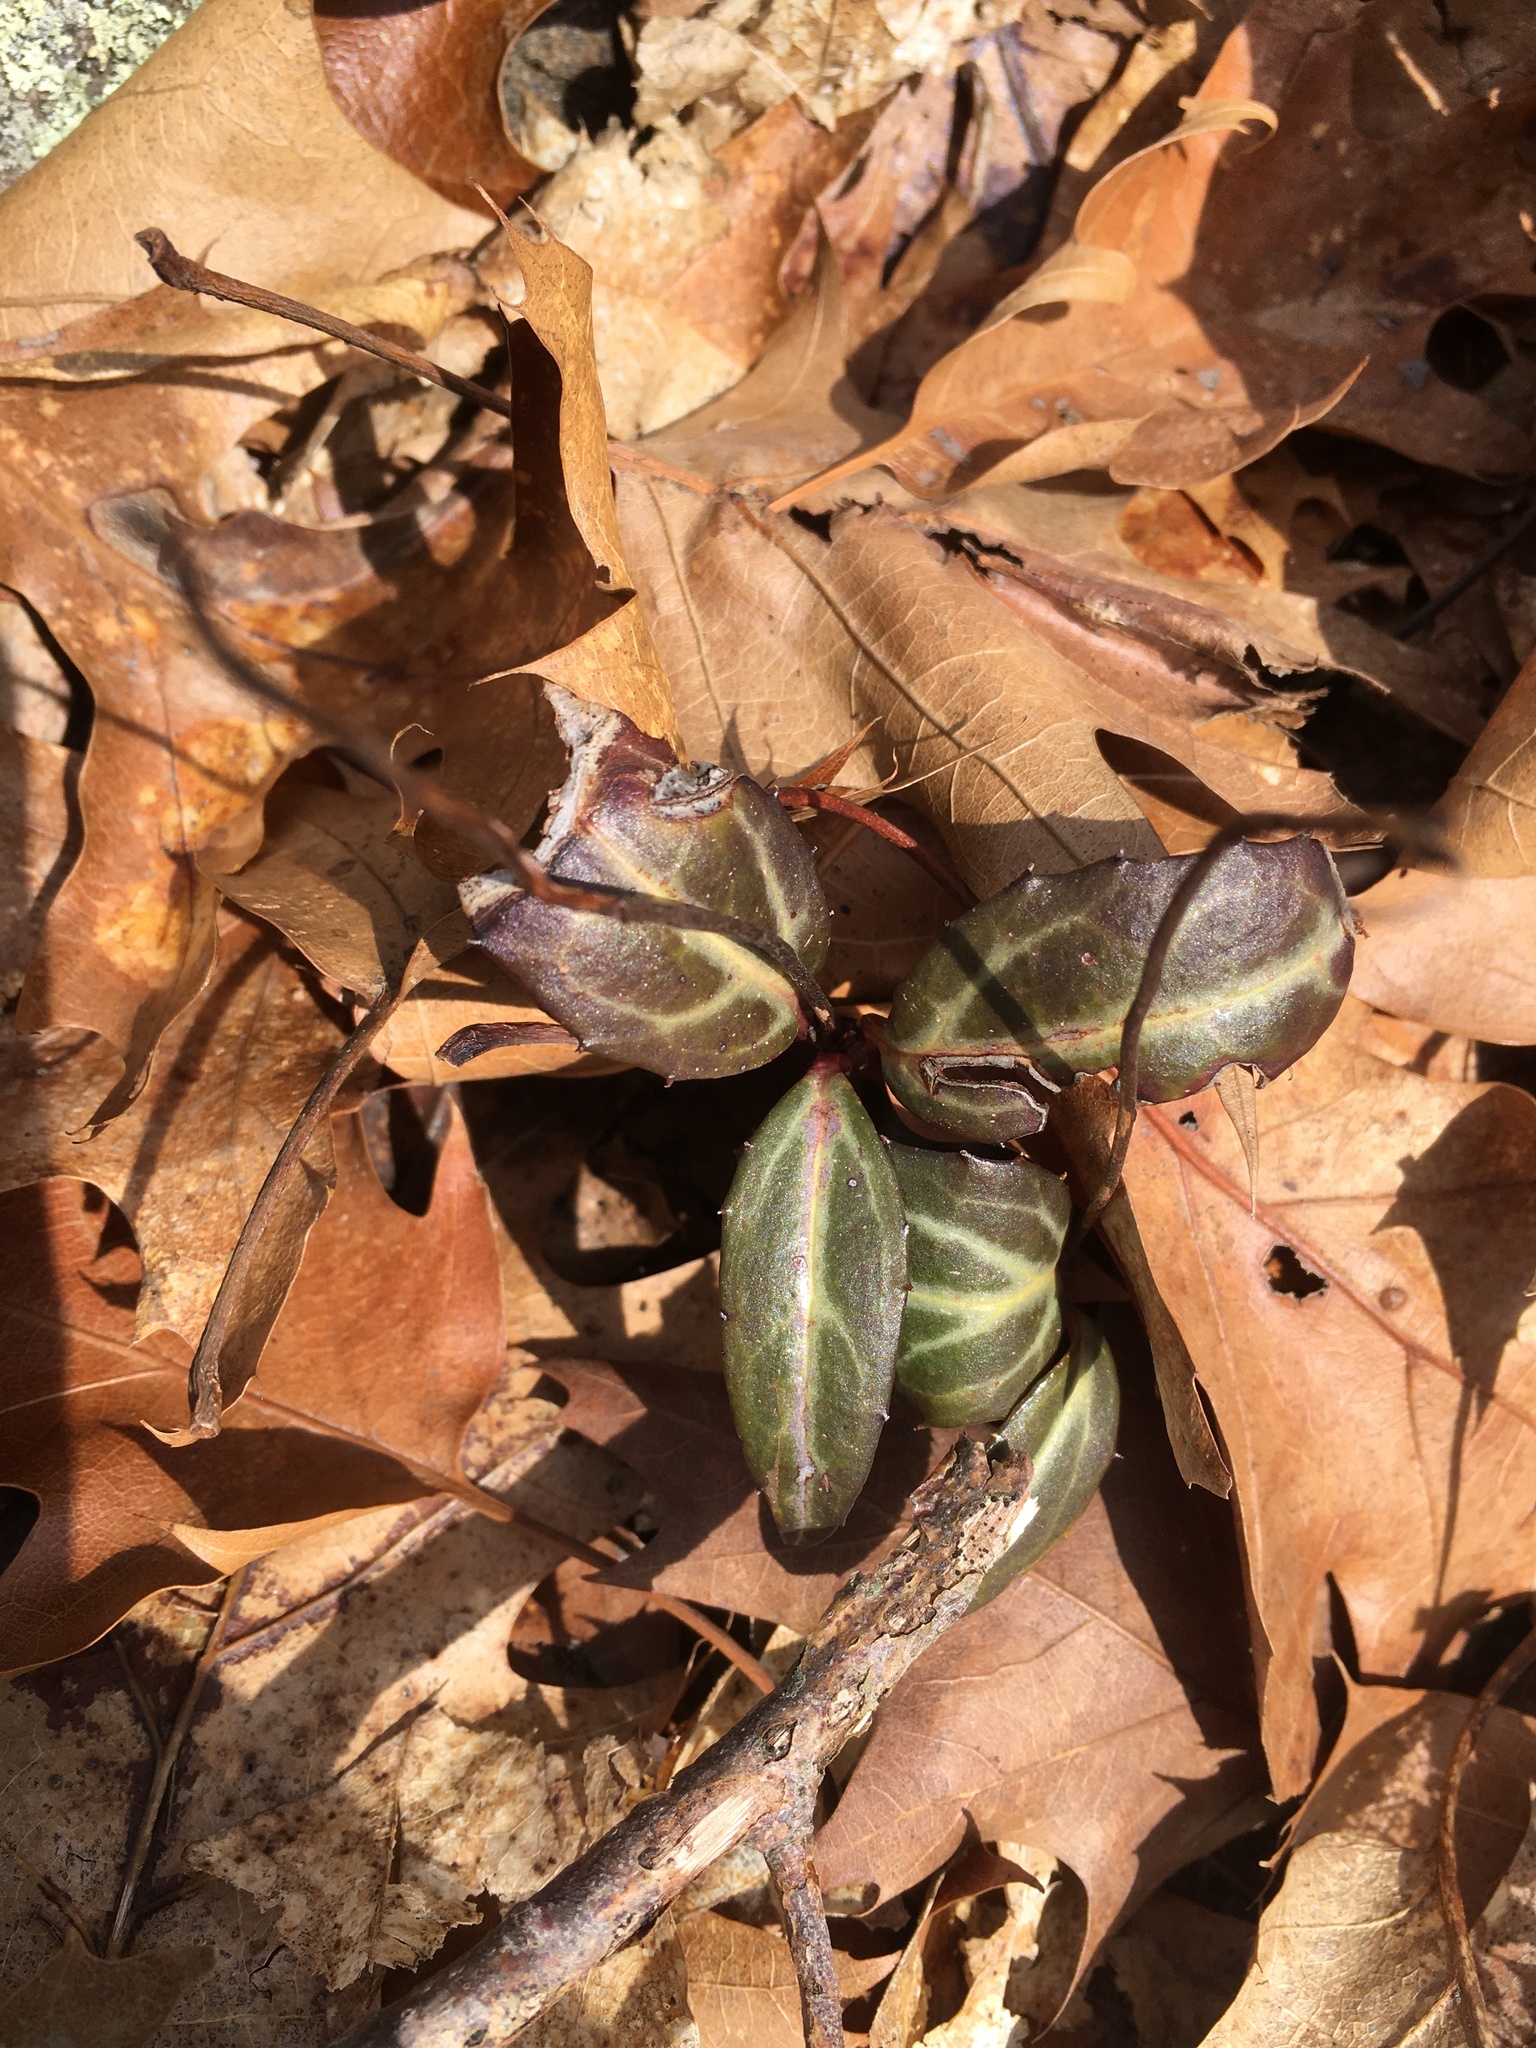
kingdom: Plantae
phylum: Tracheophyta
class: Magnoliopsida
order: Ericales
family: Ericaceae
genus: Chimaphila
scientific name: Chimaphila maculata
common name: Spotted pipsissewa
